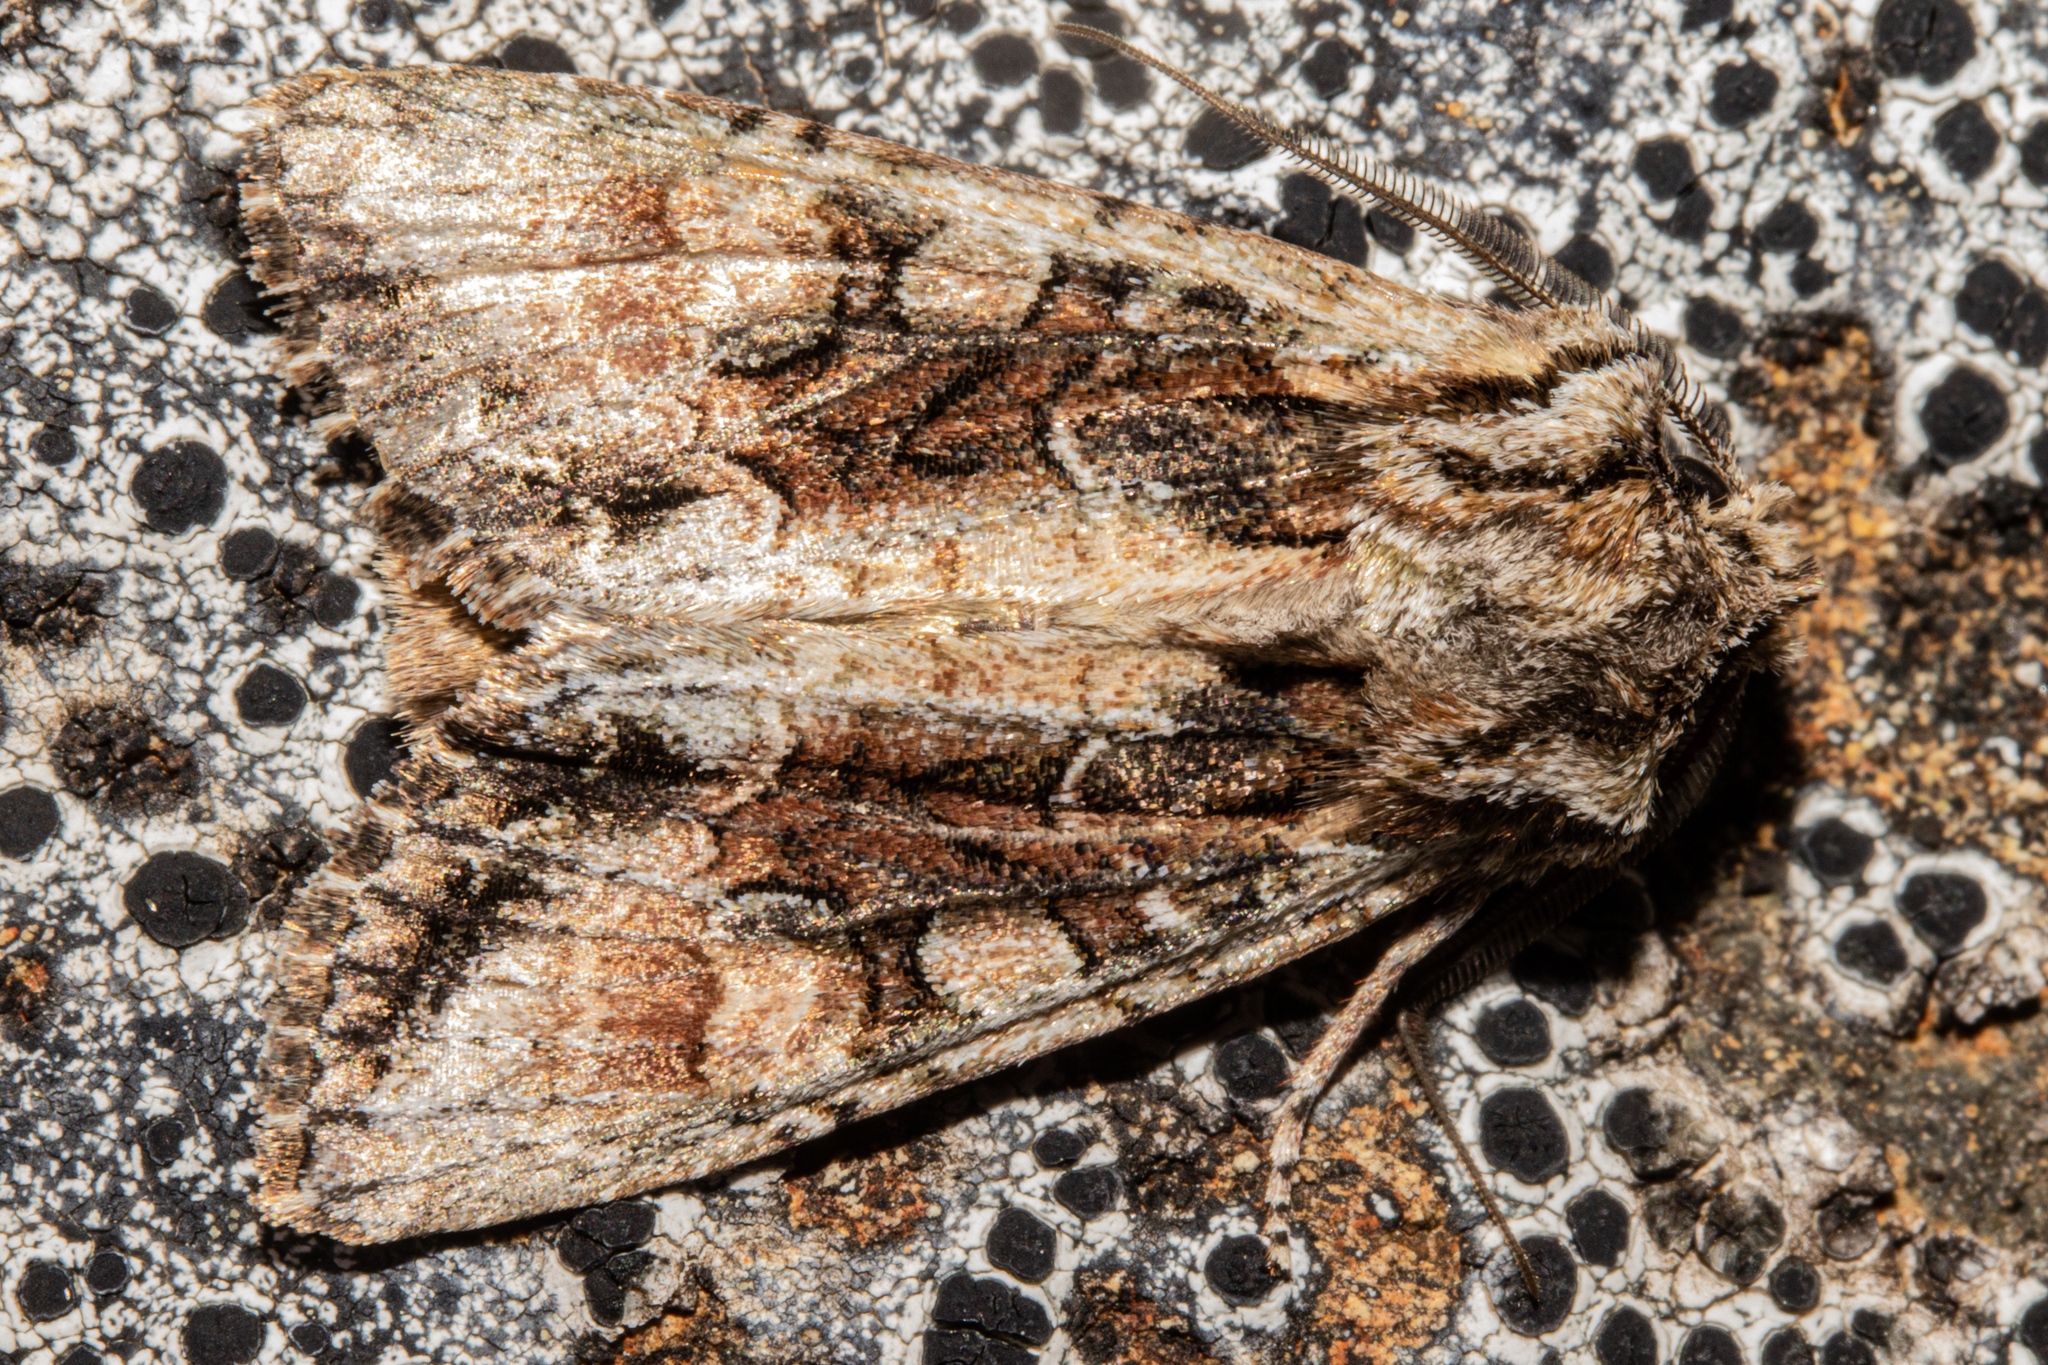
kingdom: Animalia
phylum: Arthropoda
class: Insecta
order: Lepidoptera
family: Noctuidae
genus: Ichneutica
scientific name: Ichneutica mutans
